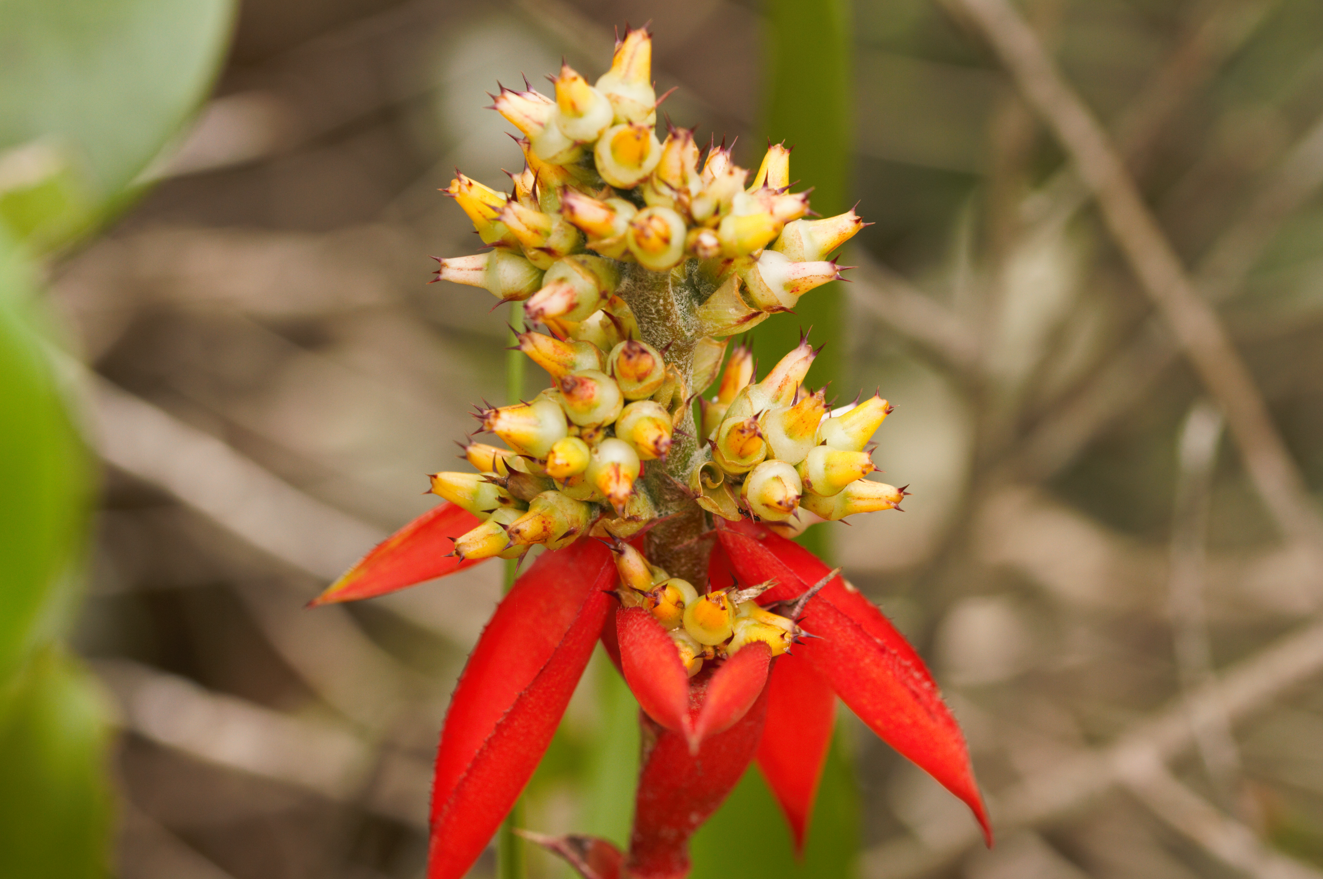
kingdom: Plantae
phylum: Tracheophyta
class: Liliopsida
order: Poales
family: Bromeliaceae
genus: Aechmea
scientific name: Aechmea mertensii
